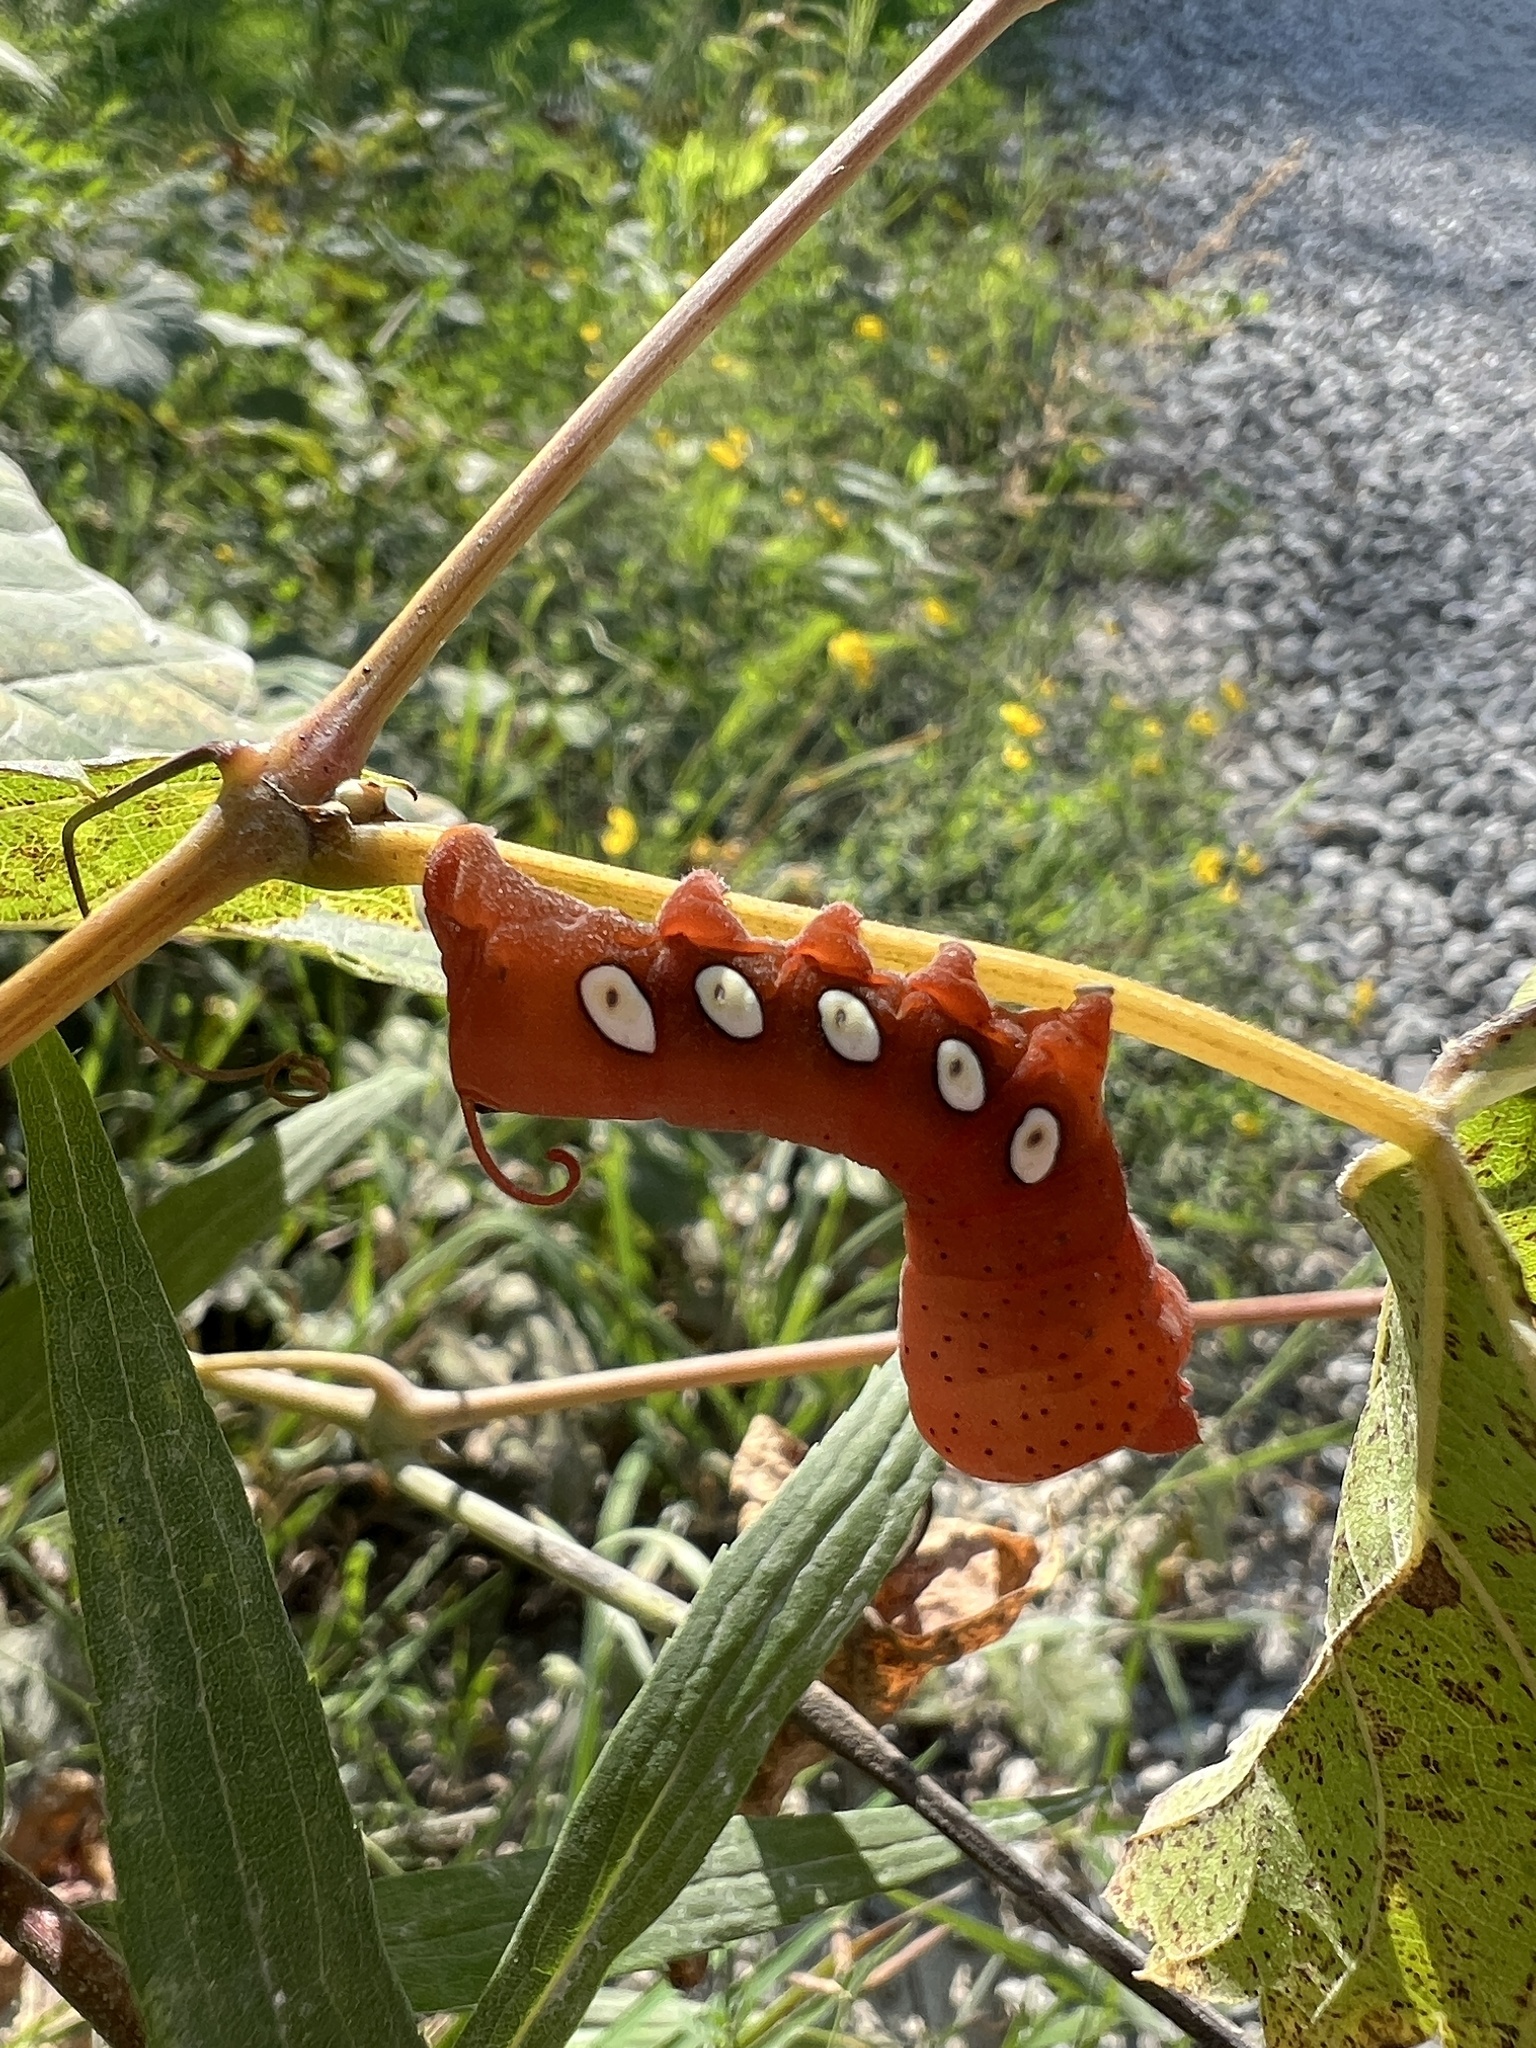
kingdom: Animalia
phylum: Arthropoda
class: Insecta
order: Lepidoptera
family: Sphingidae
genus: Eumorpha
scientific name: Eumorpha pandorus
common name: Pandora sphinx
